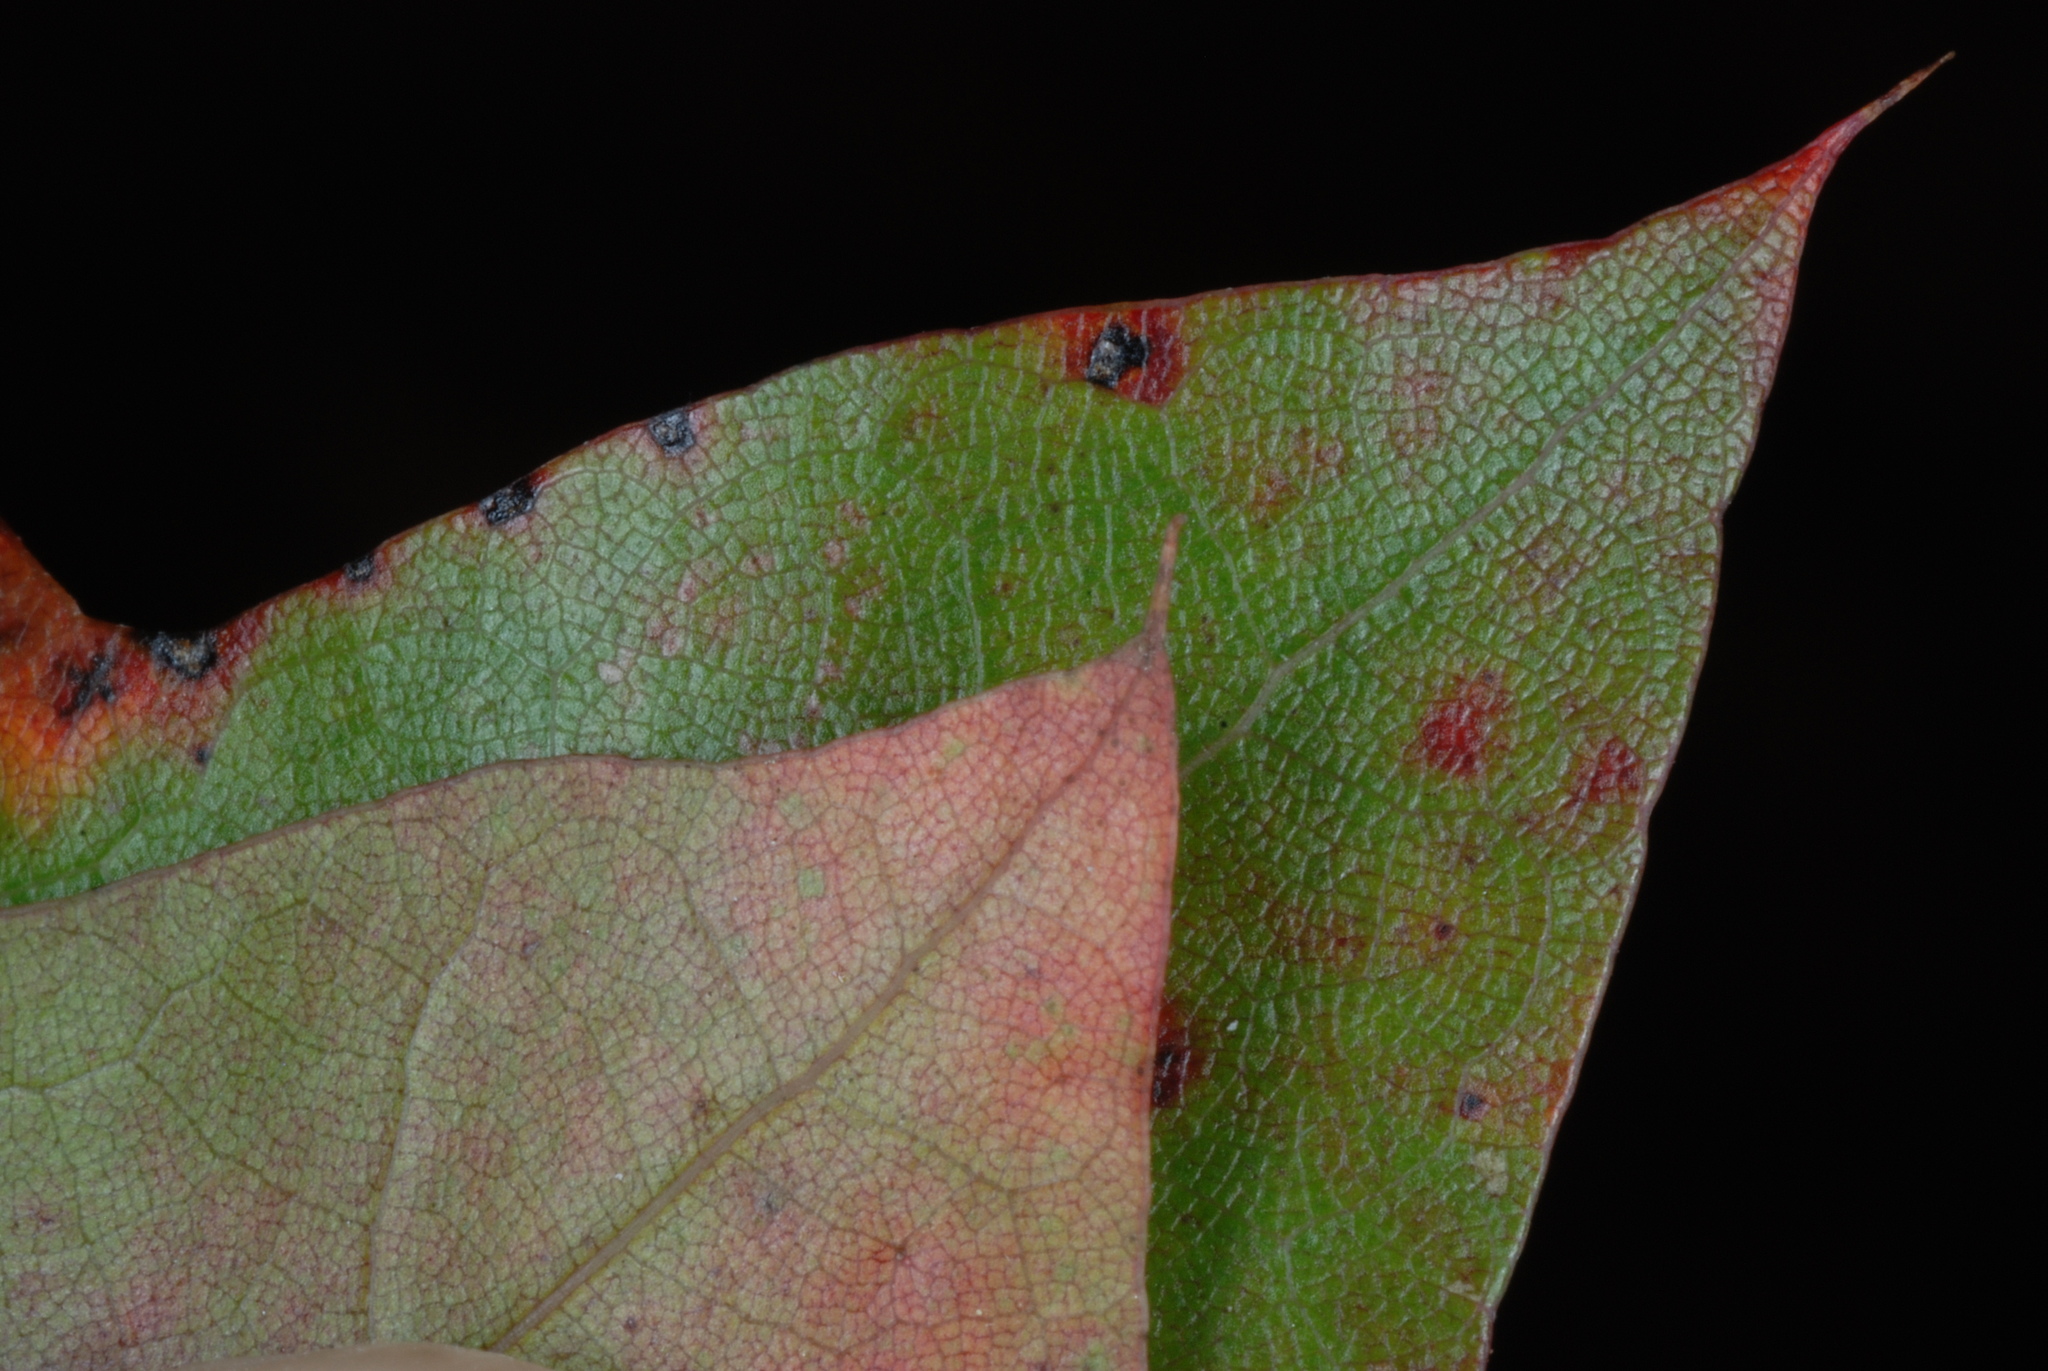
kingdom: Plantae
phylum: Tracheophyta
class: Magnoliopsida
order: Fagales
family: Fagaceae
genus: Quercus
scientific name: Quercus georgiana
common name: Georgia oak
